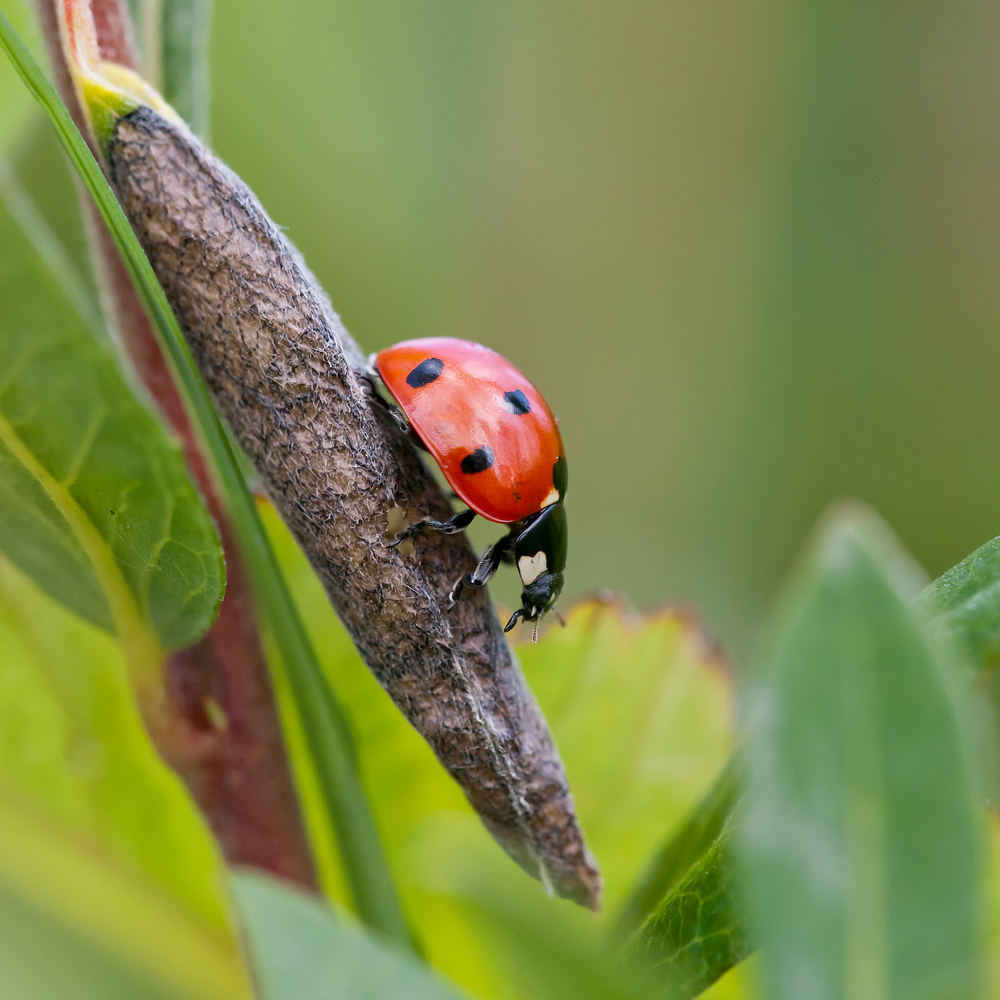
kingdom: Animalia
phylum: Arthropoda
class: Insecta
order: Coleoptera
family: Coccinellidae
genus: Coccinella
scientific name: Coccinella septempunctata
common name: Sevenspotted lady beetle
